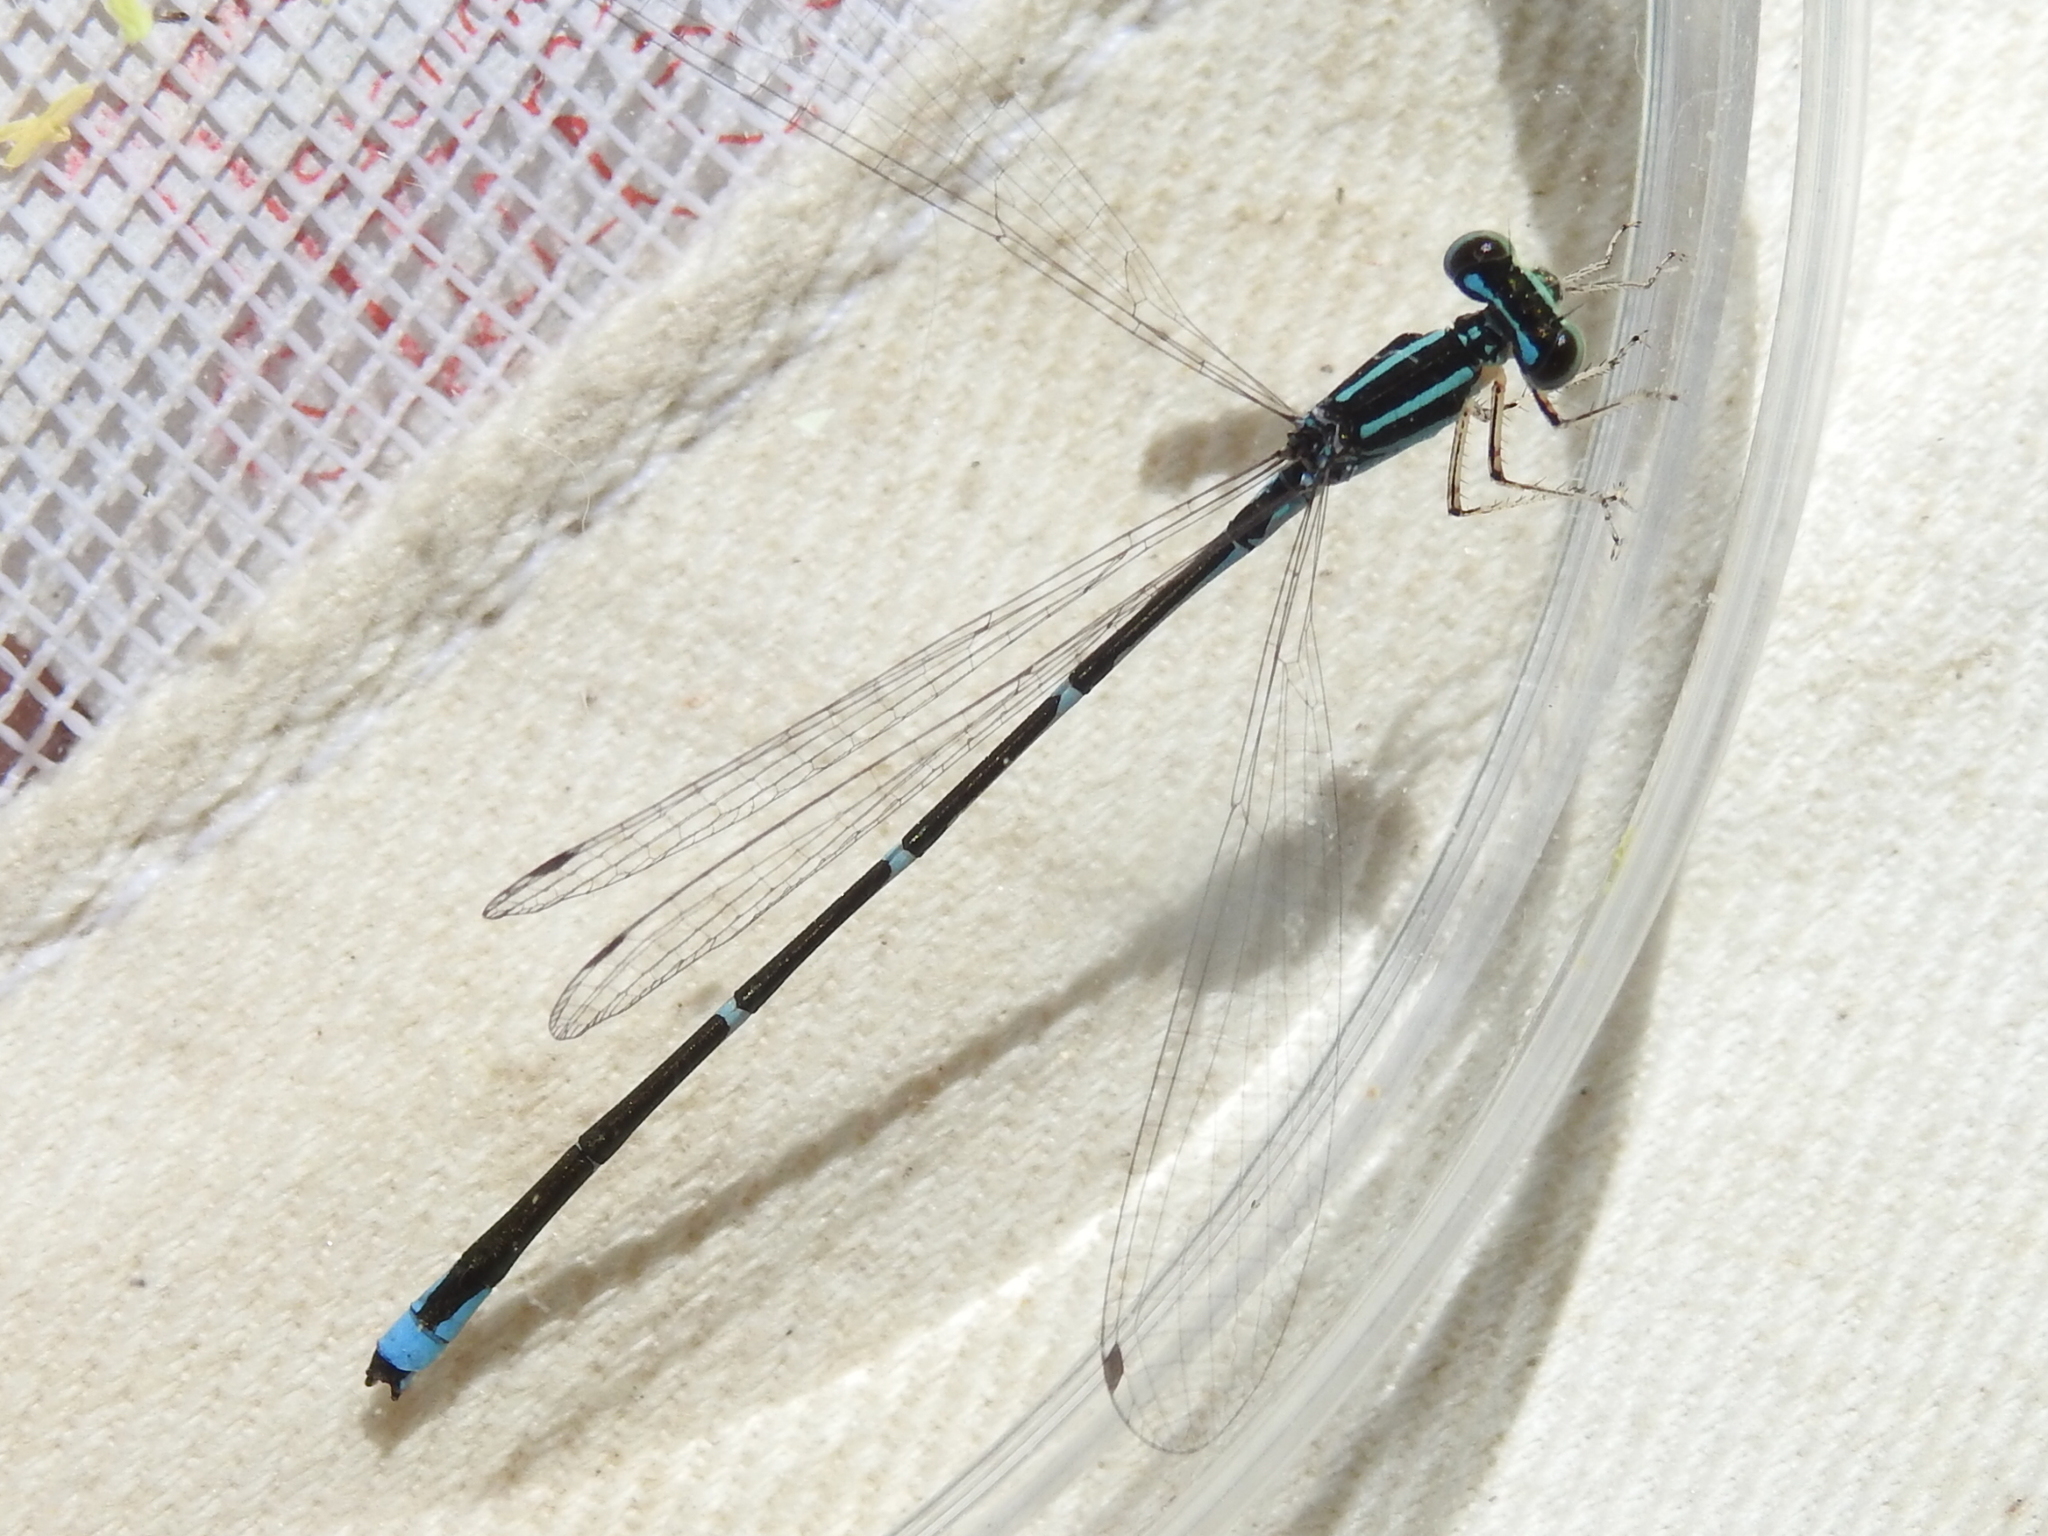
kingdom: Animalia
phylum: Arthropoda
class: Insecta
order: Odonata
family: Coenagrionidae
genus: Enallagma
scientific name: Enallagma exsulans
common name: Stream bluet
